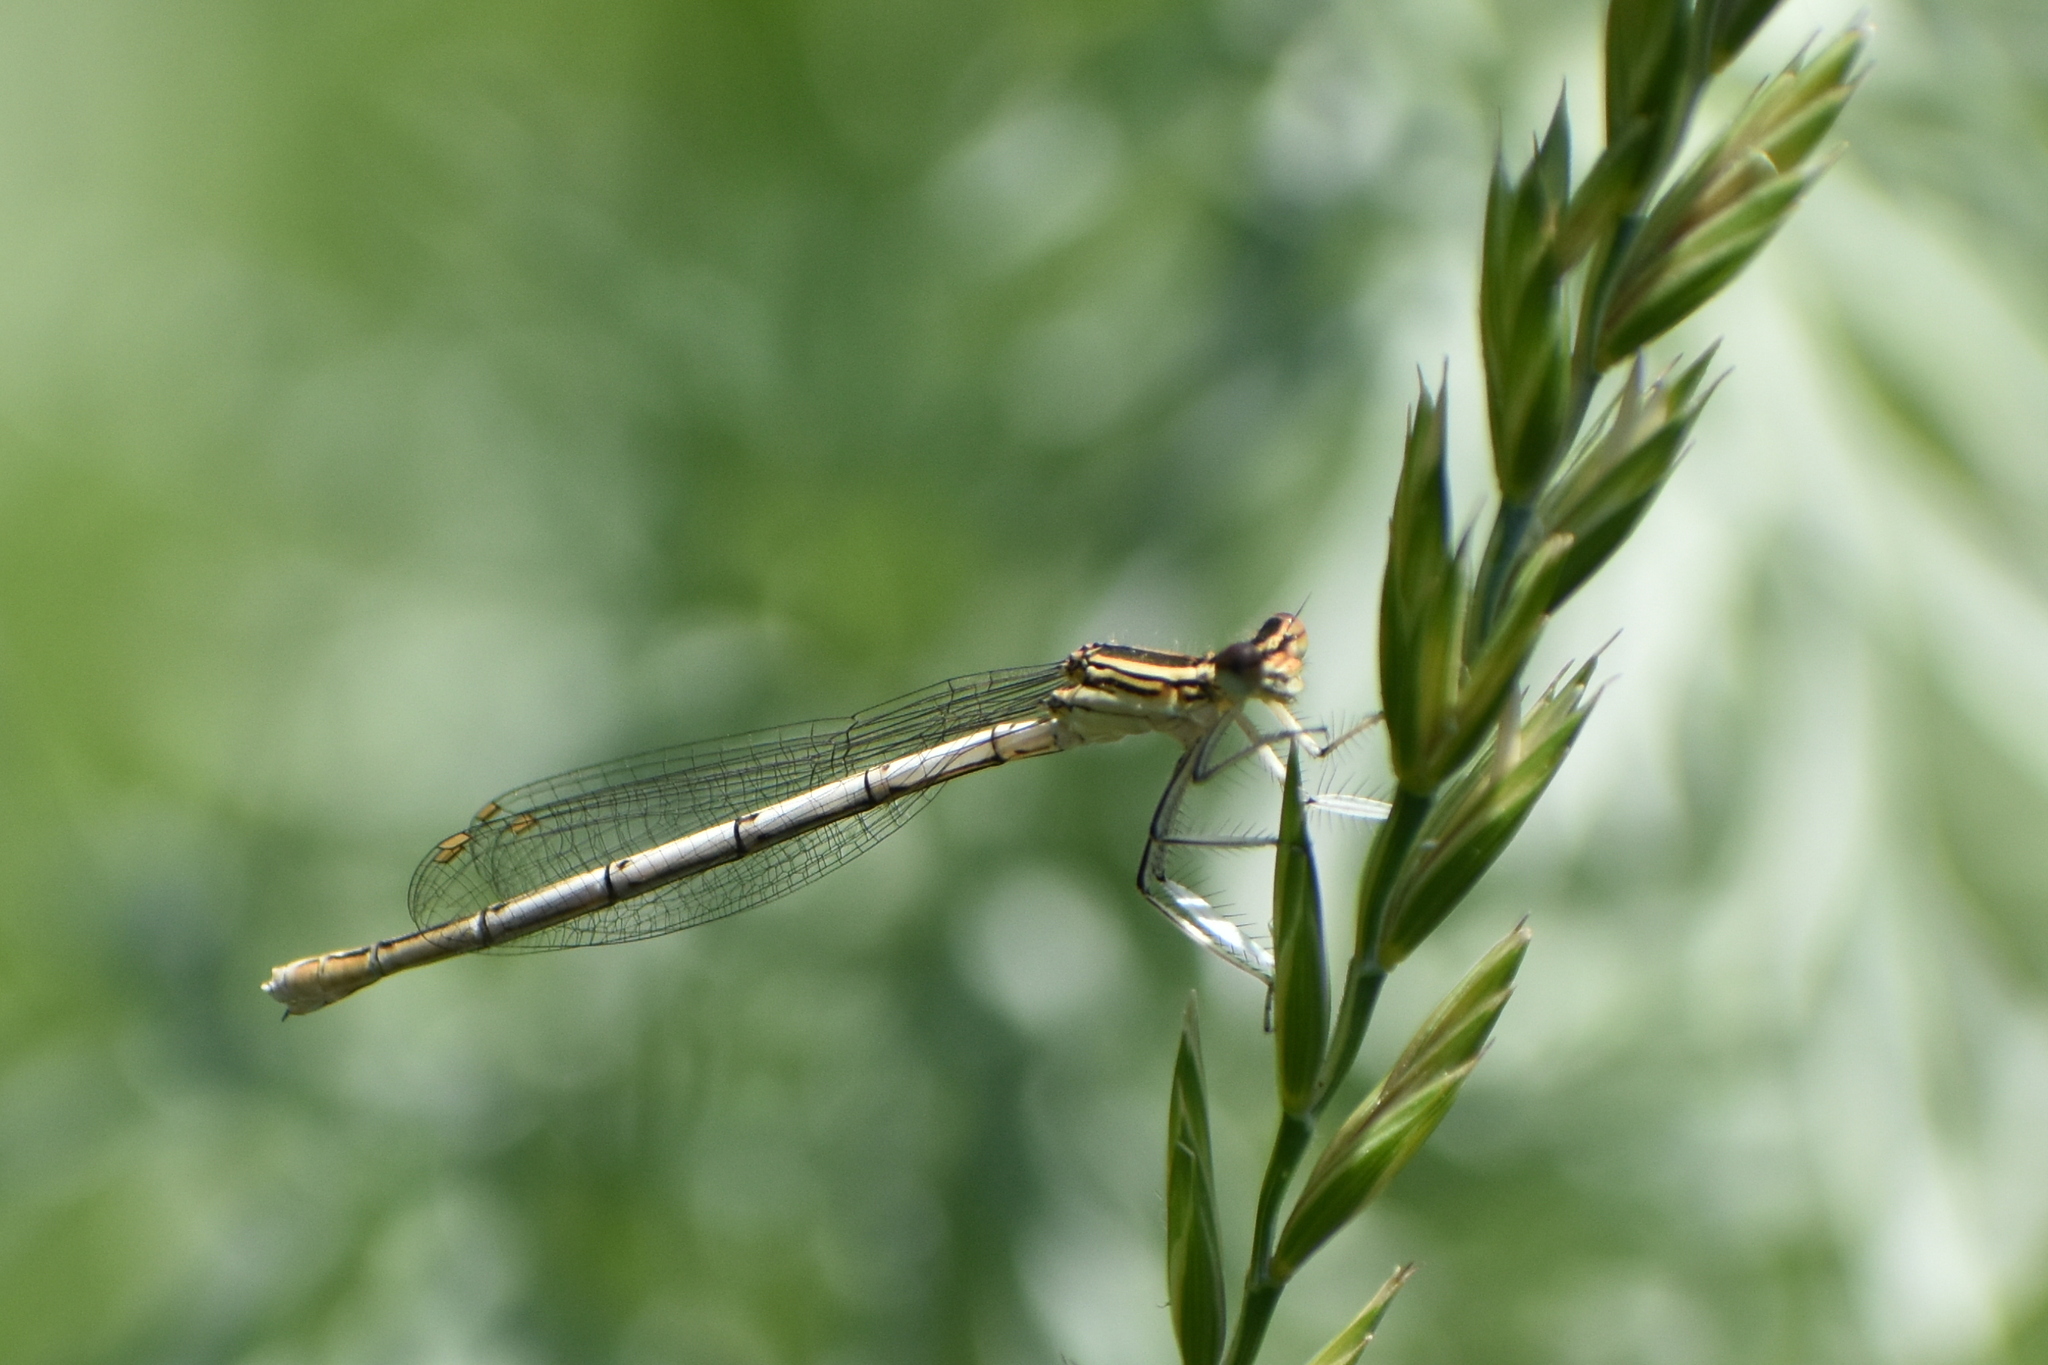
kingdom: Animalia
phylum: Arthropoda
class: Insecta
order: Odonata
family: Platycnemididae
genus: Platycnemis
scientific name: Platycnemis pennipes
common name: White-legged damselfly
